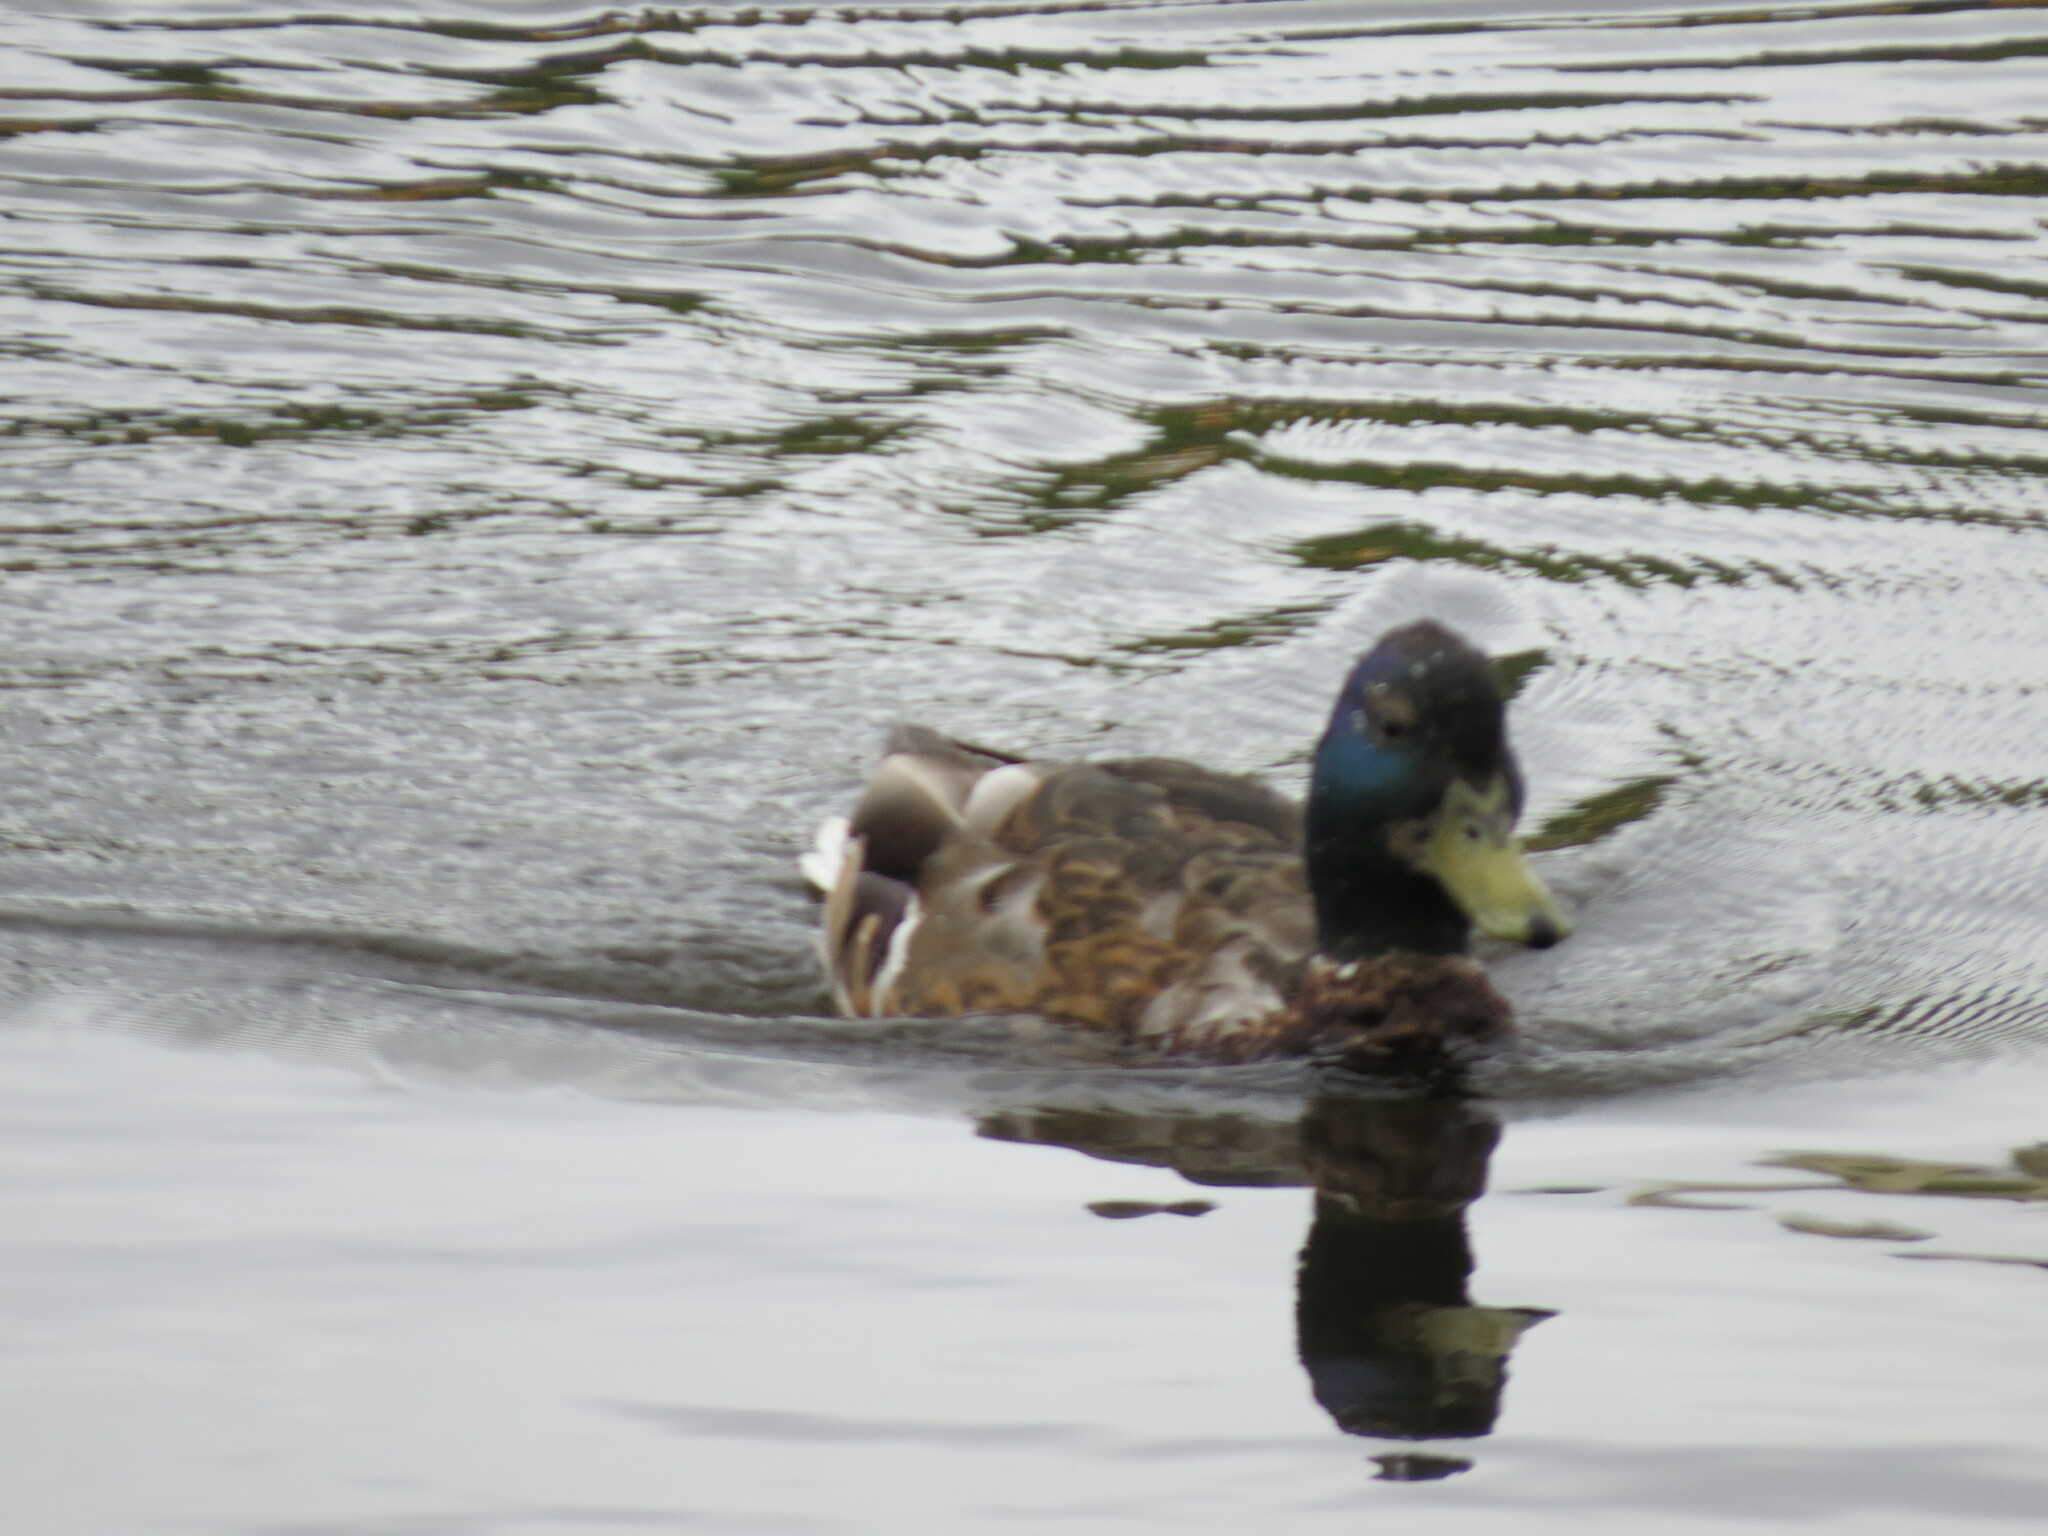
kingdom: Animalia
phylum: Chordata
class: Aves
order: Anseriformes
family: Anatidae
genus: Anas
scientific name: Anas platyrhynchos
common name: Mallard
